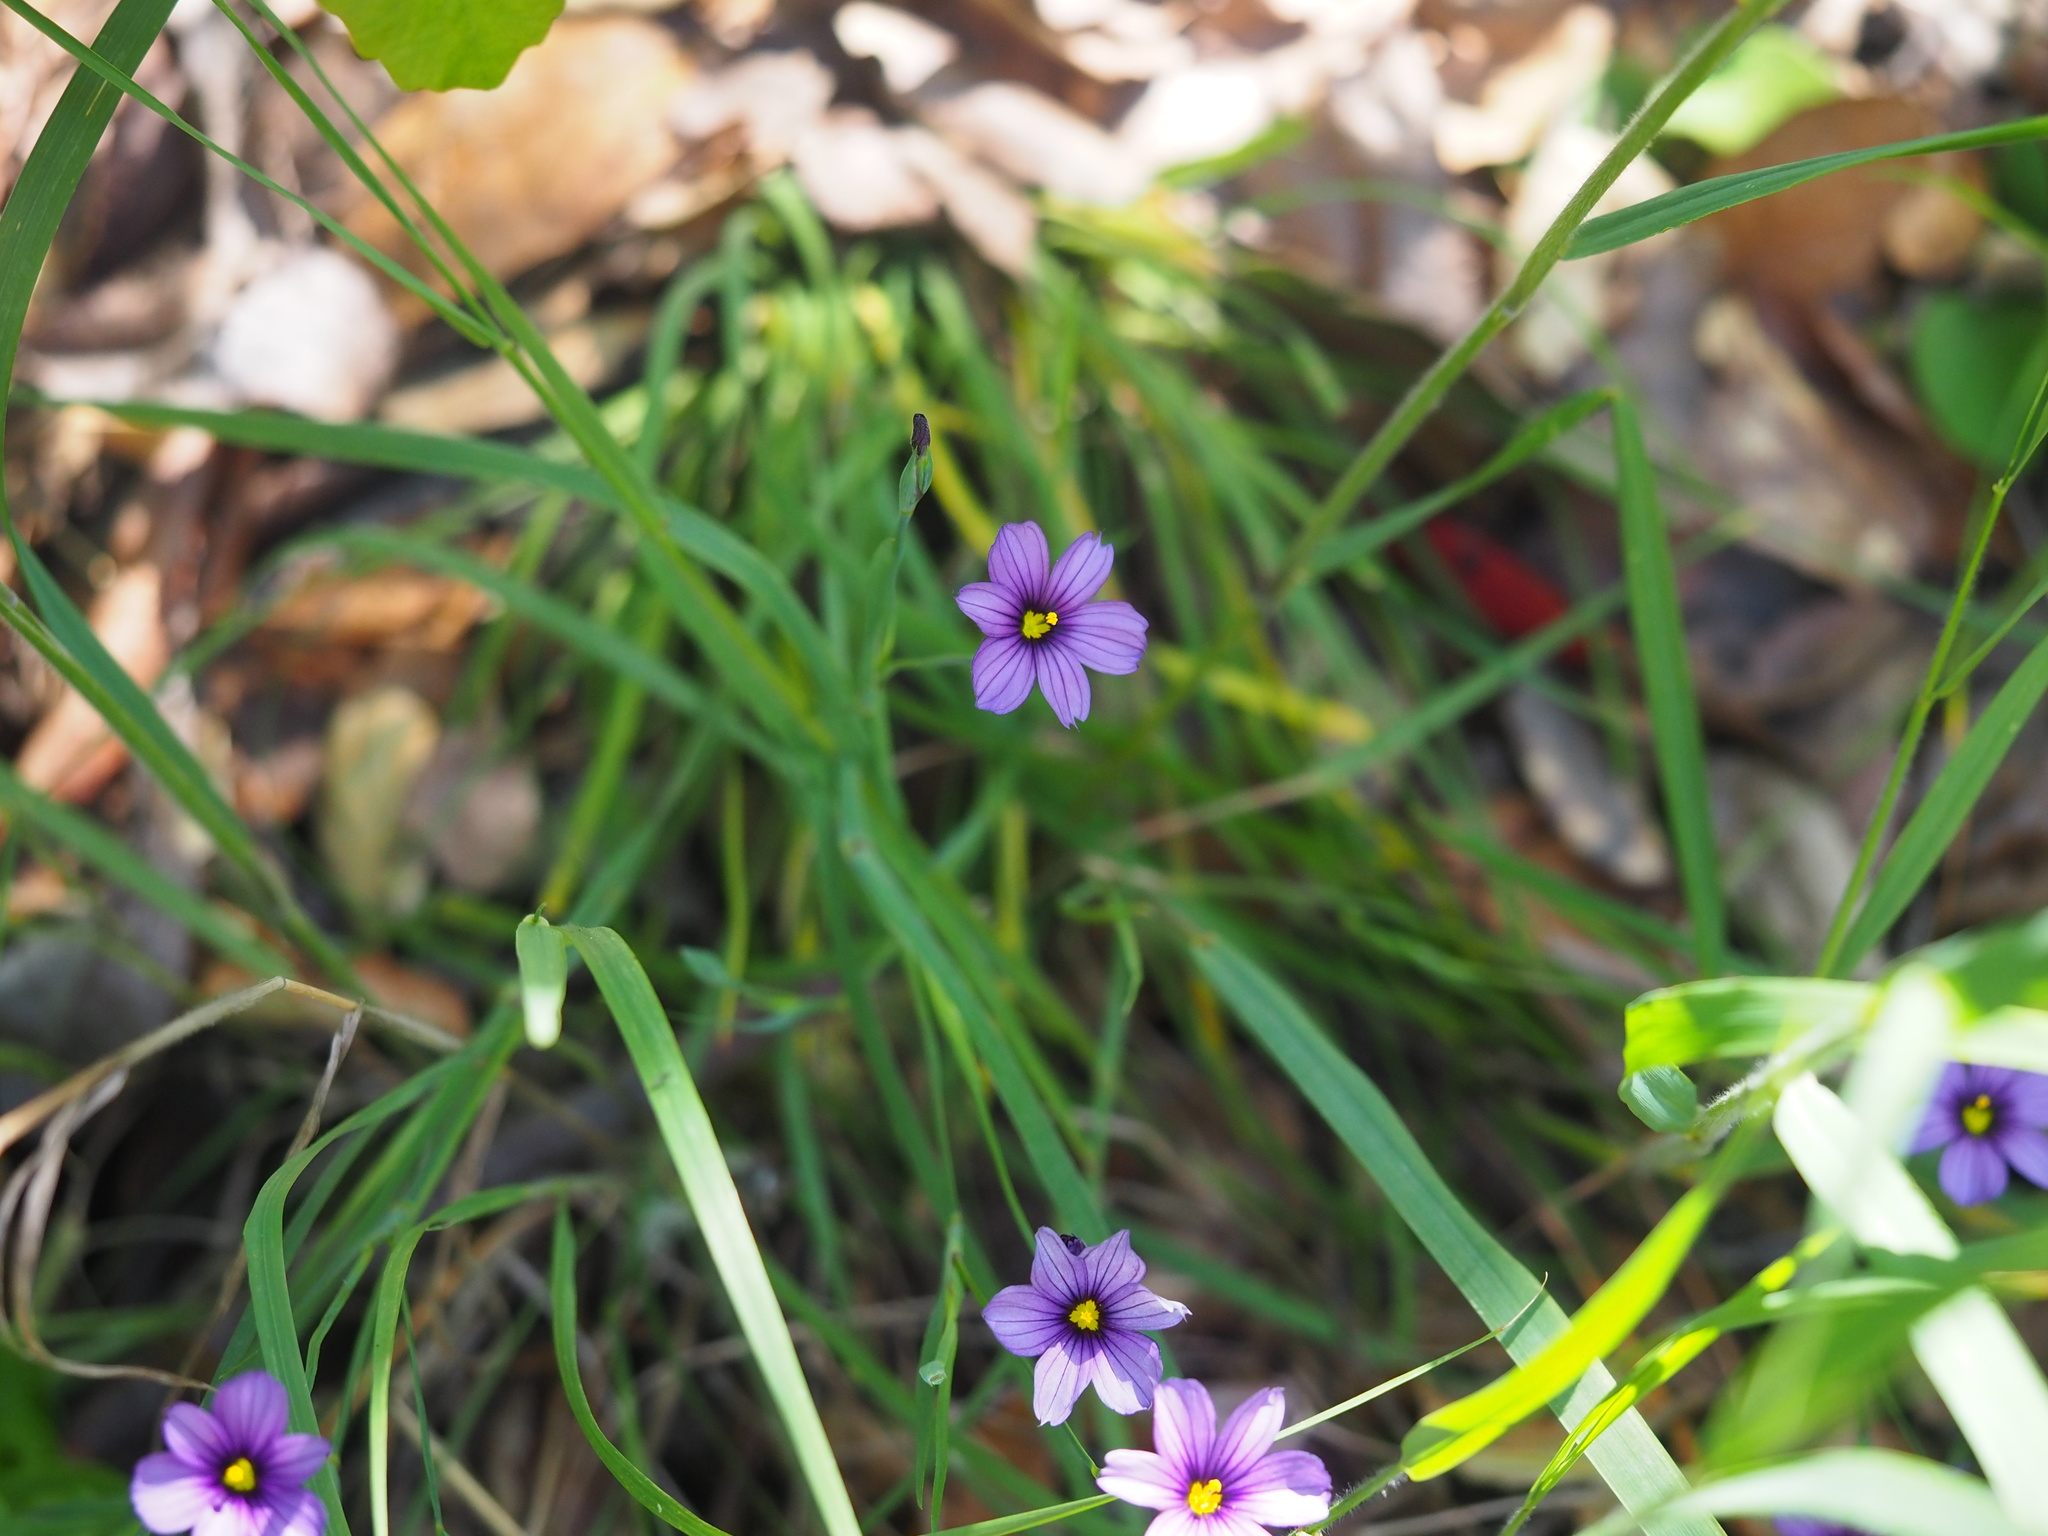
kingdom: Plantae
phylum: Tracheophyta
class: Liliopsida
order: Asparagales
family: Iridaceae
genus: Sisyrinchium
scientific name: Sisyrinchium bellum
